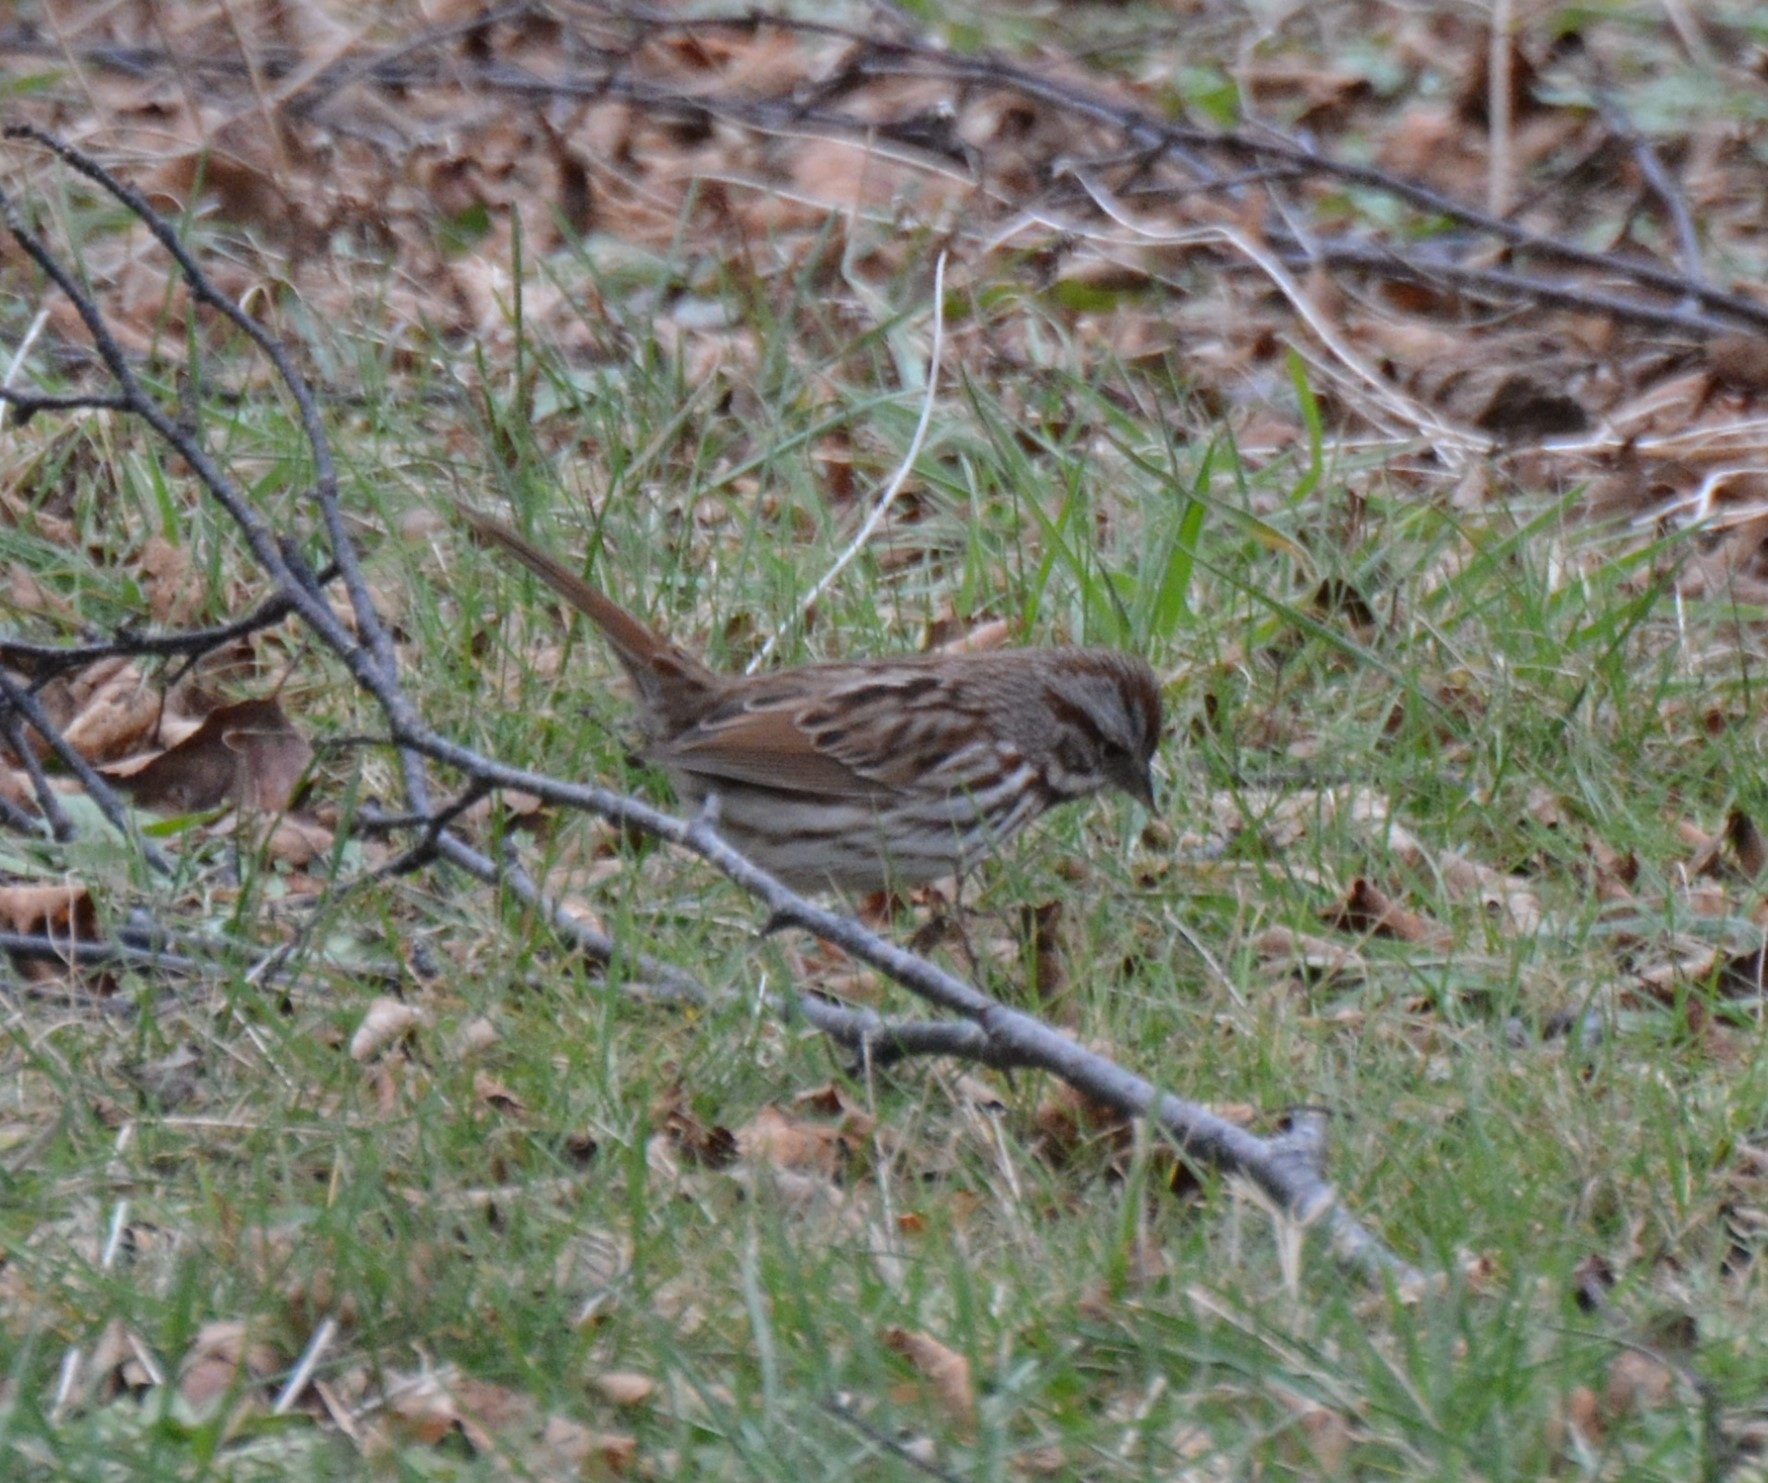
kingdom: Animalia
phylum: Chordata
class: Aves
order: Passeriformes
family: Passerellidae
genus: Melospiza
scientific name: Melospiza melodia
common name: Song sparrow
